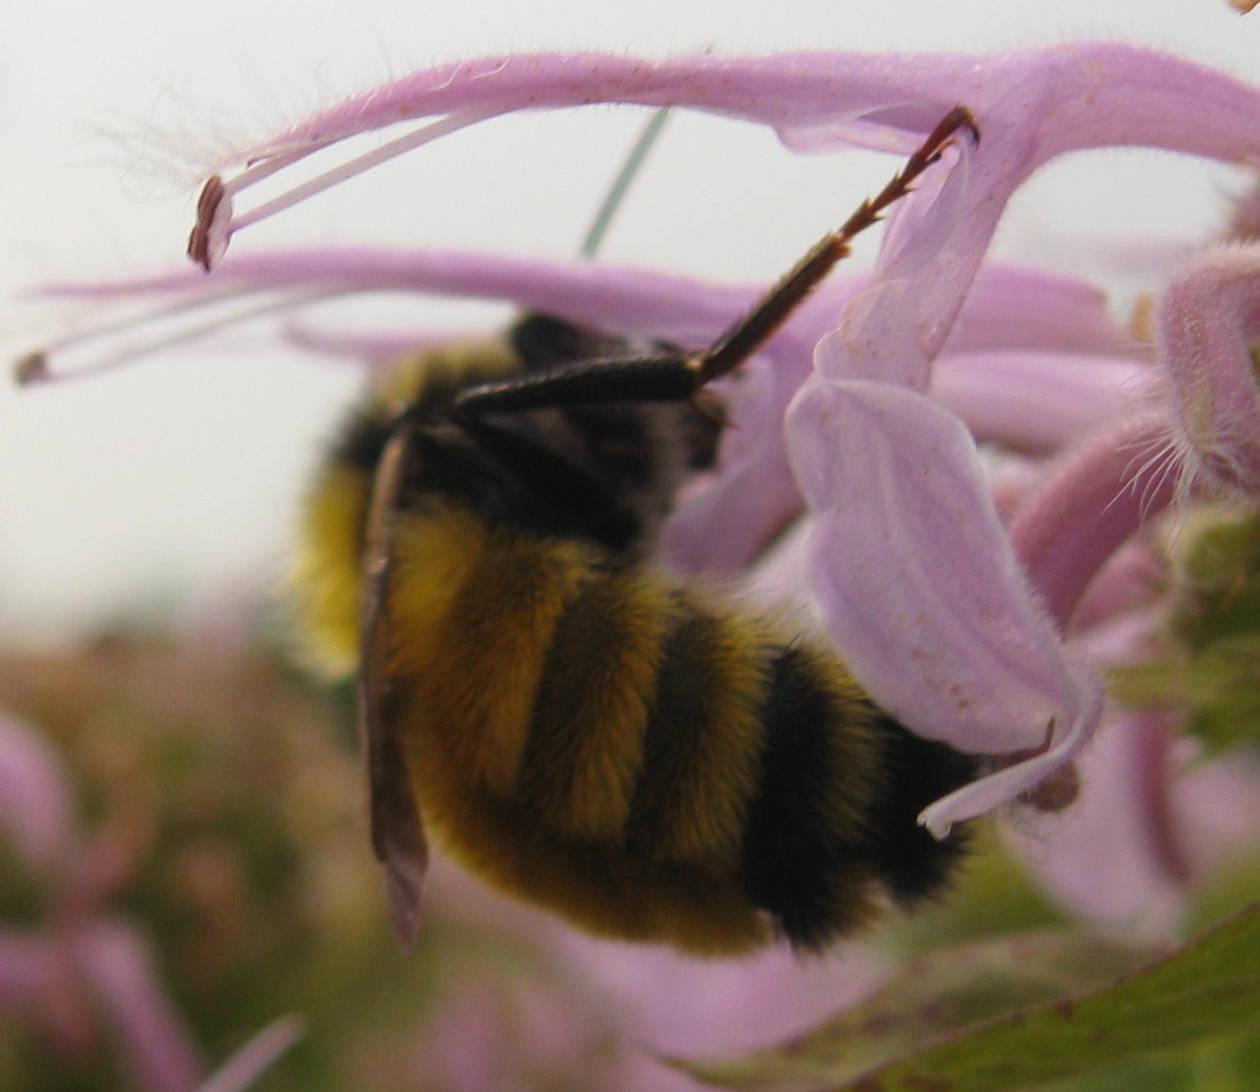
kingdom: Animalia
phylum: Arthropoda
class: Insecta
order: Hymenoptera
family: Apidae
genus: Bombus
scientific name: Bombus borealis
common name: Northern amber bumble bee
